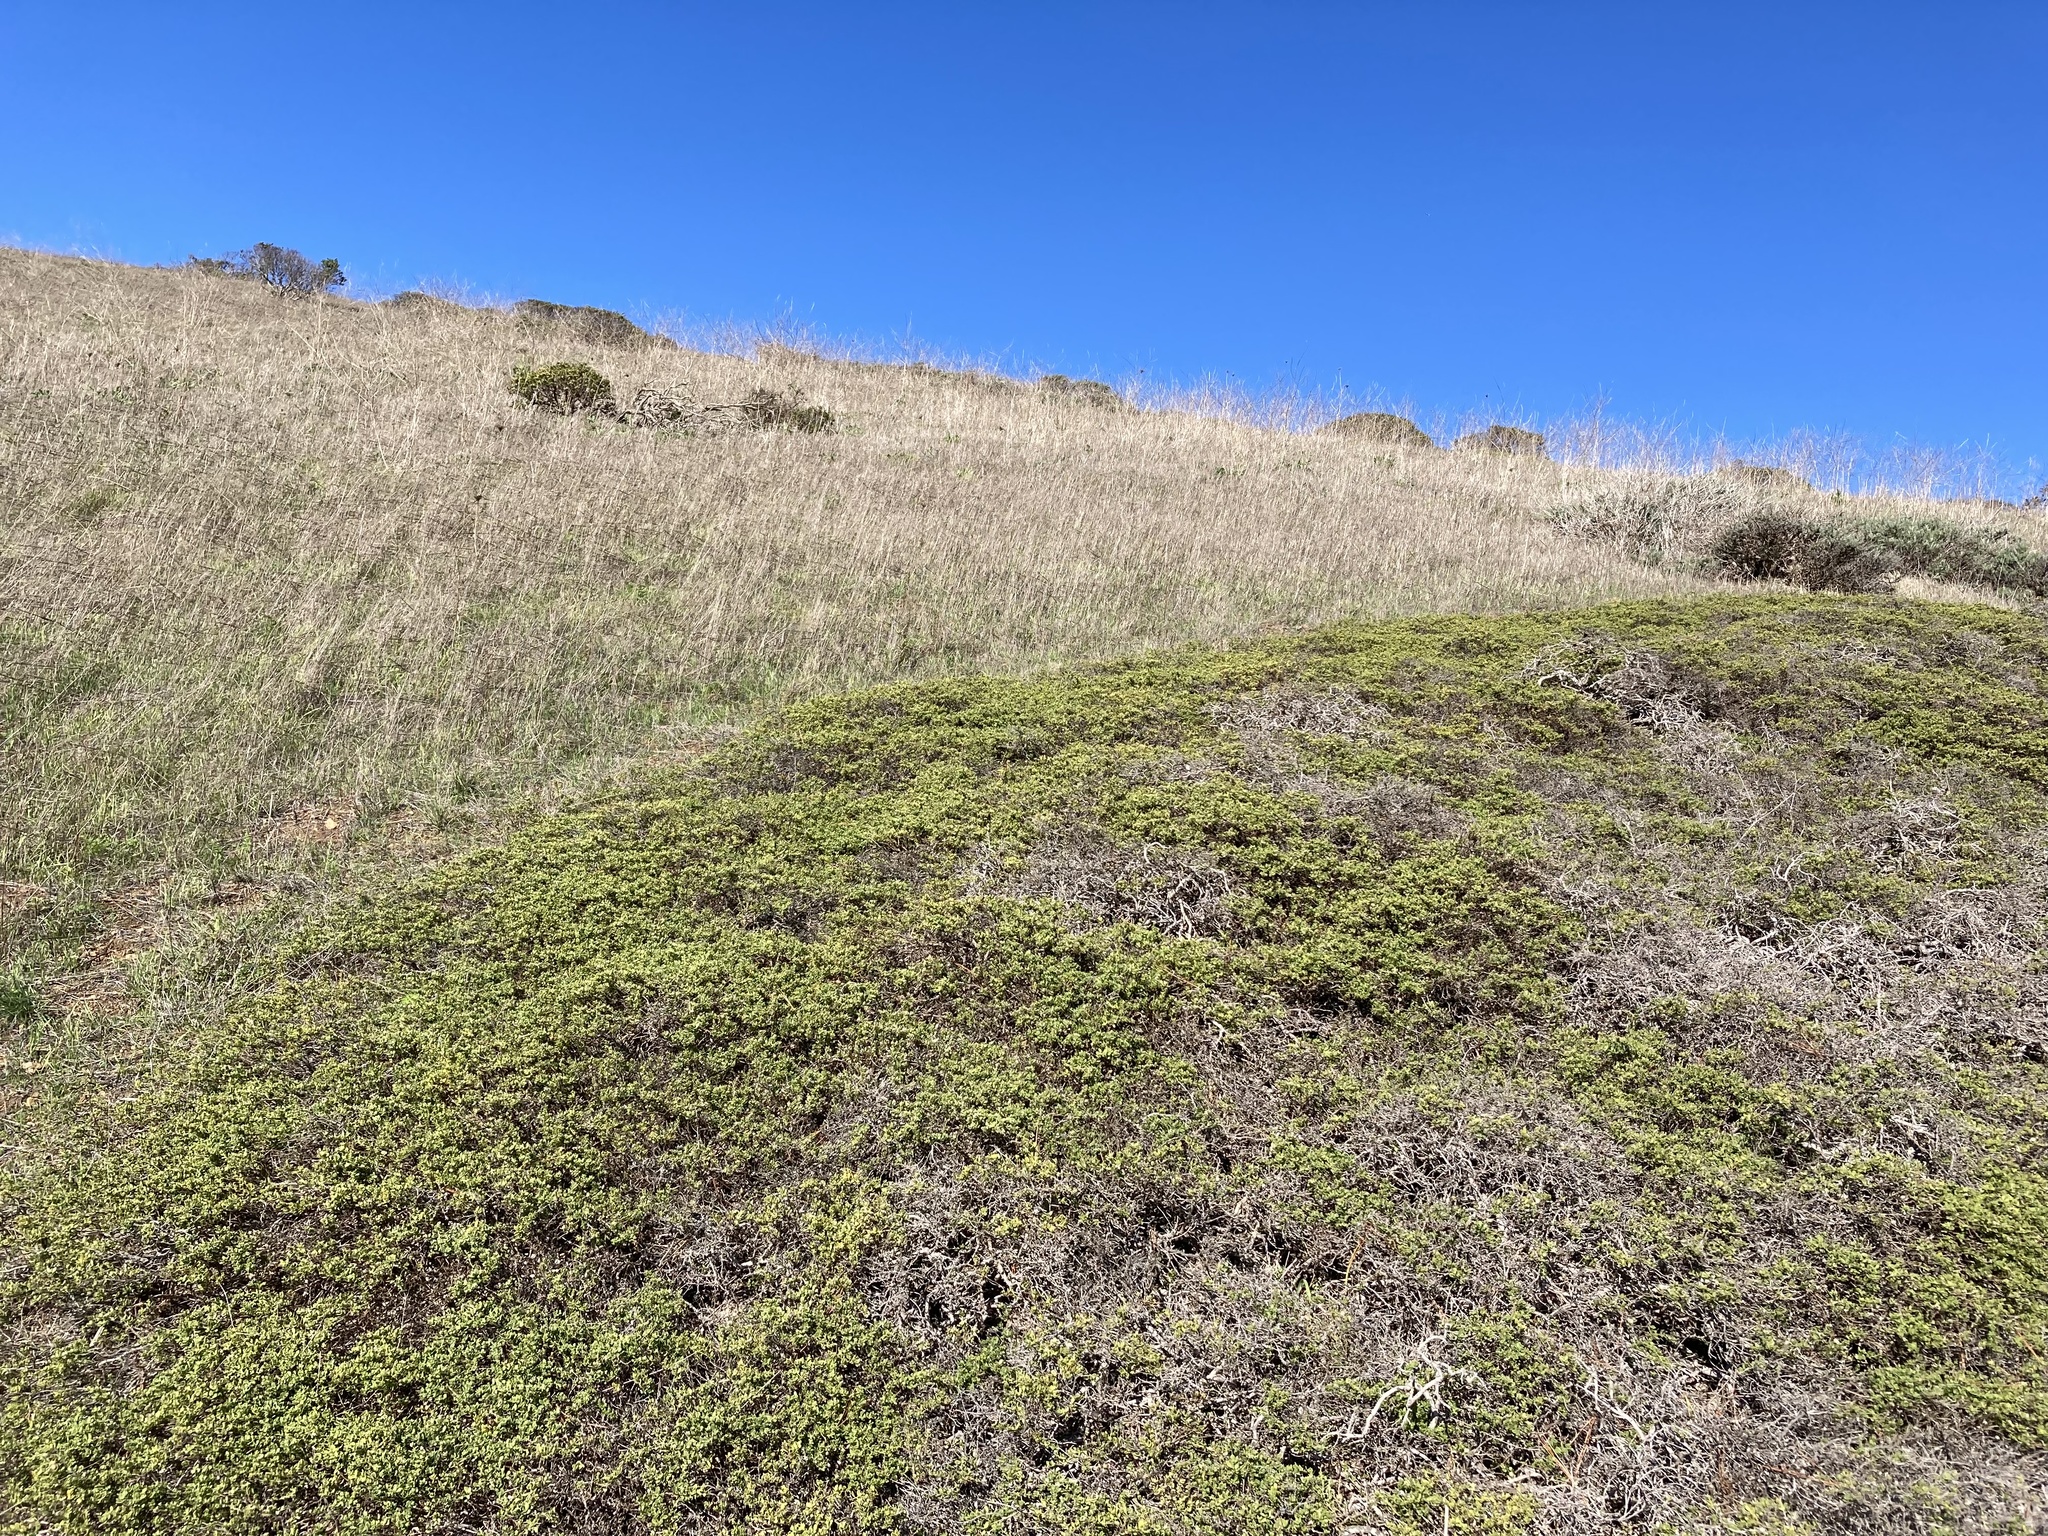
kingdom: Plantae
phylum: Tracheophyta
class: Magnoliopsida
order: Asterales
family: Asteraceae
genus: Baccharis
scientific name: Baccharis pilularis
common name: Coyotebrush
